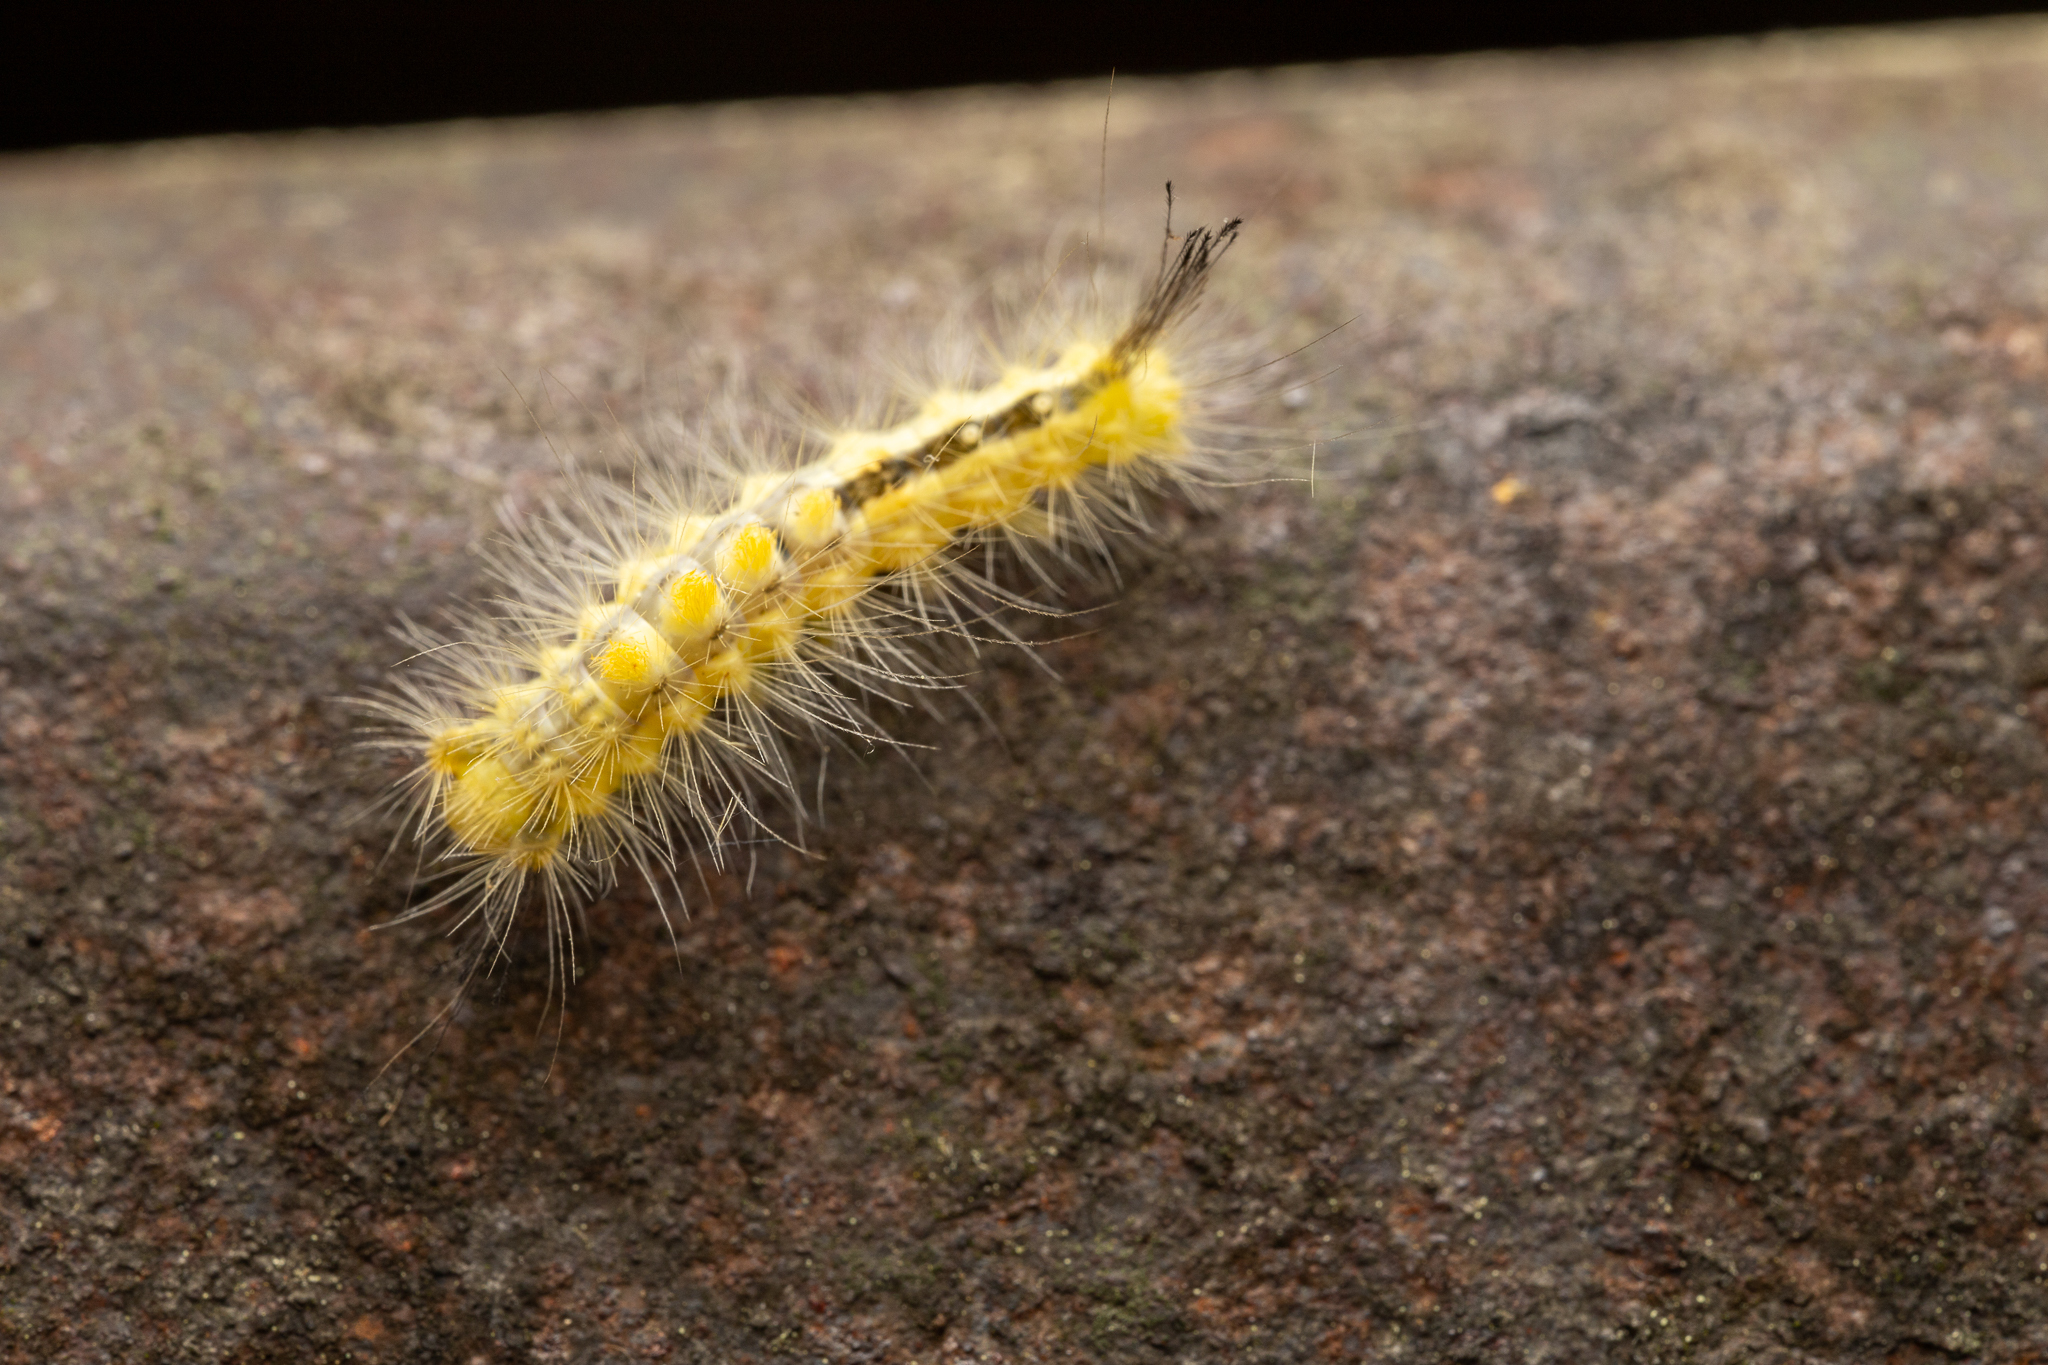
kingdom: Animalia
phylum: Arthropoda
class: Insecta
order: Lepidoptera
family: Erebidae
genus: Orgyia
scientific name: Orgyia definita
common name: Definite tussock moth
